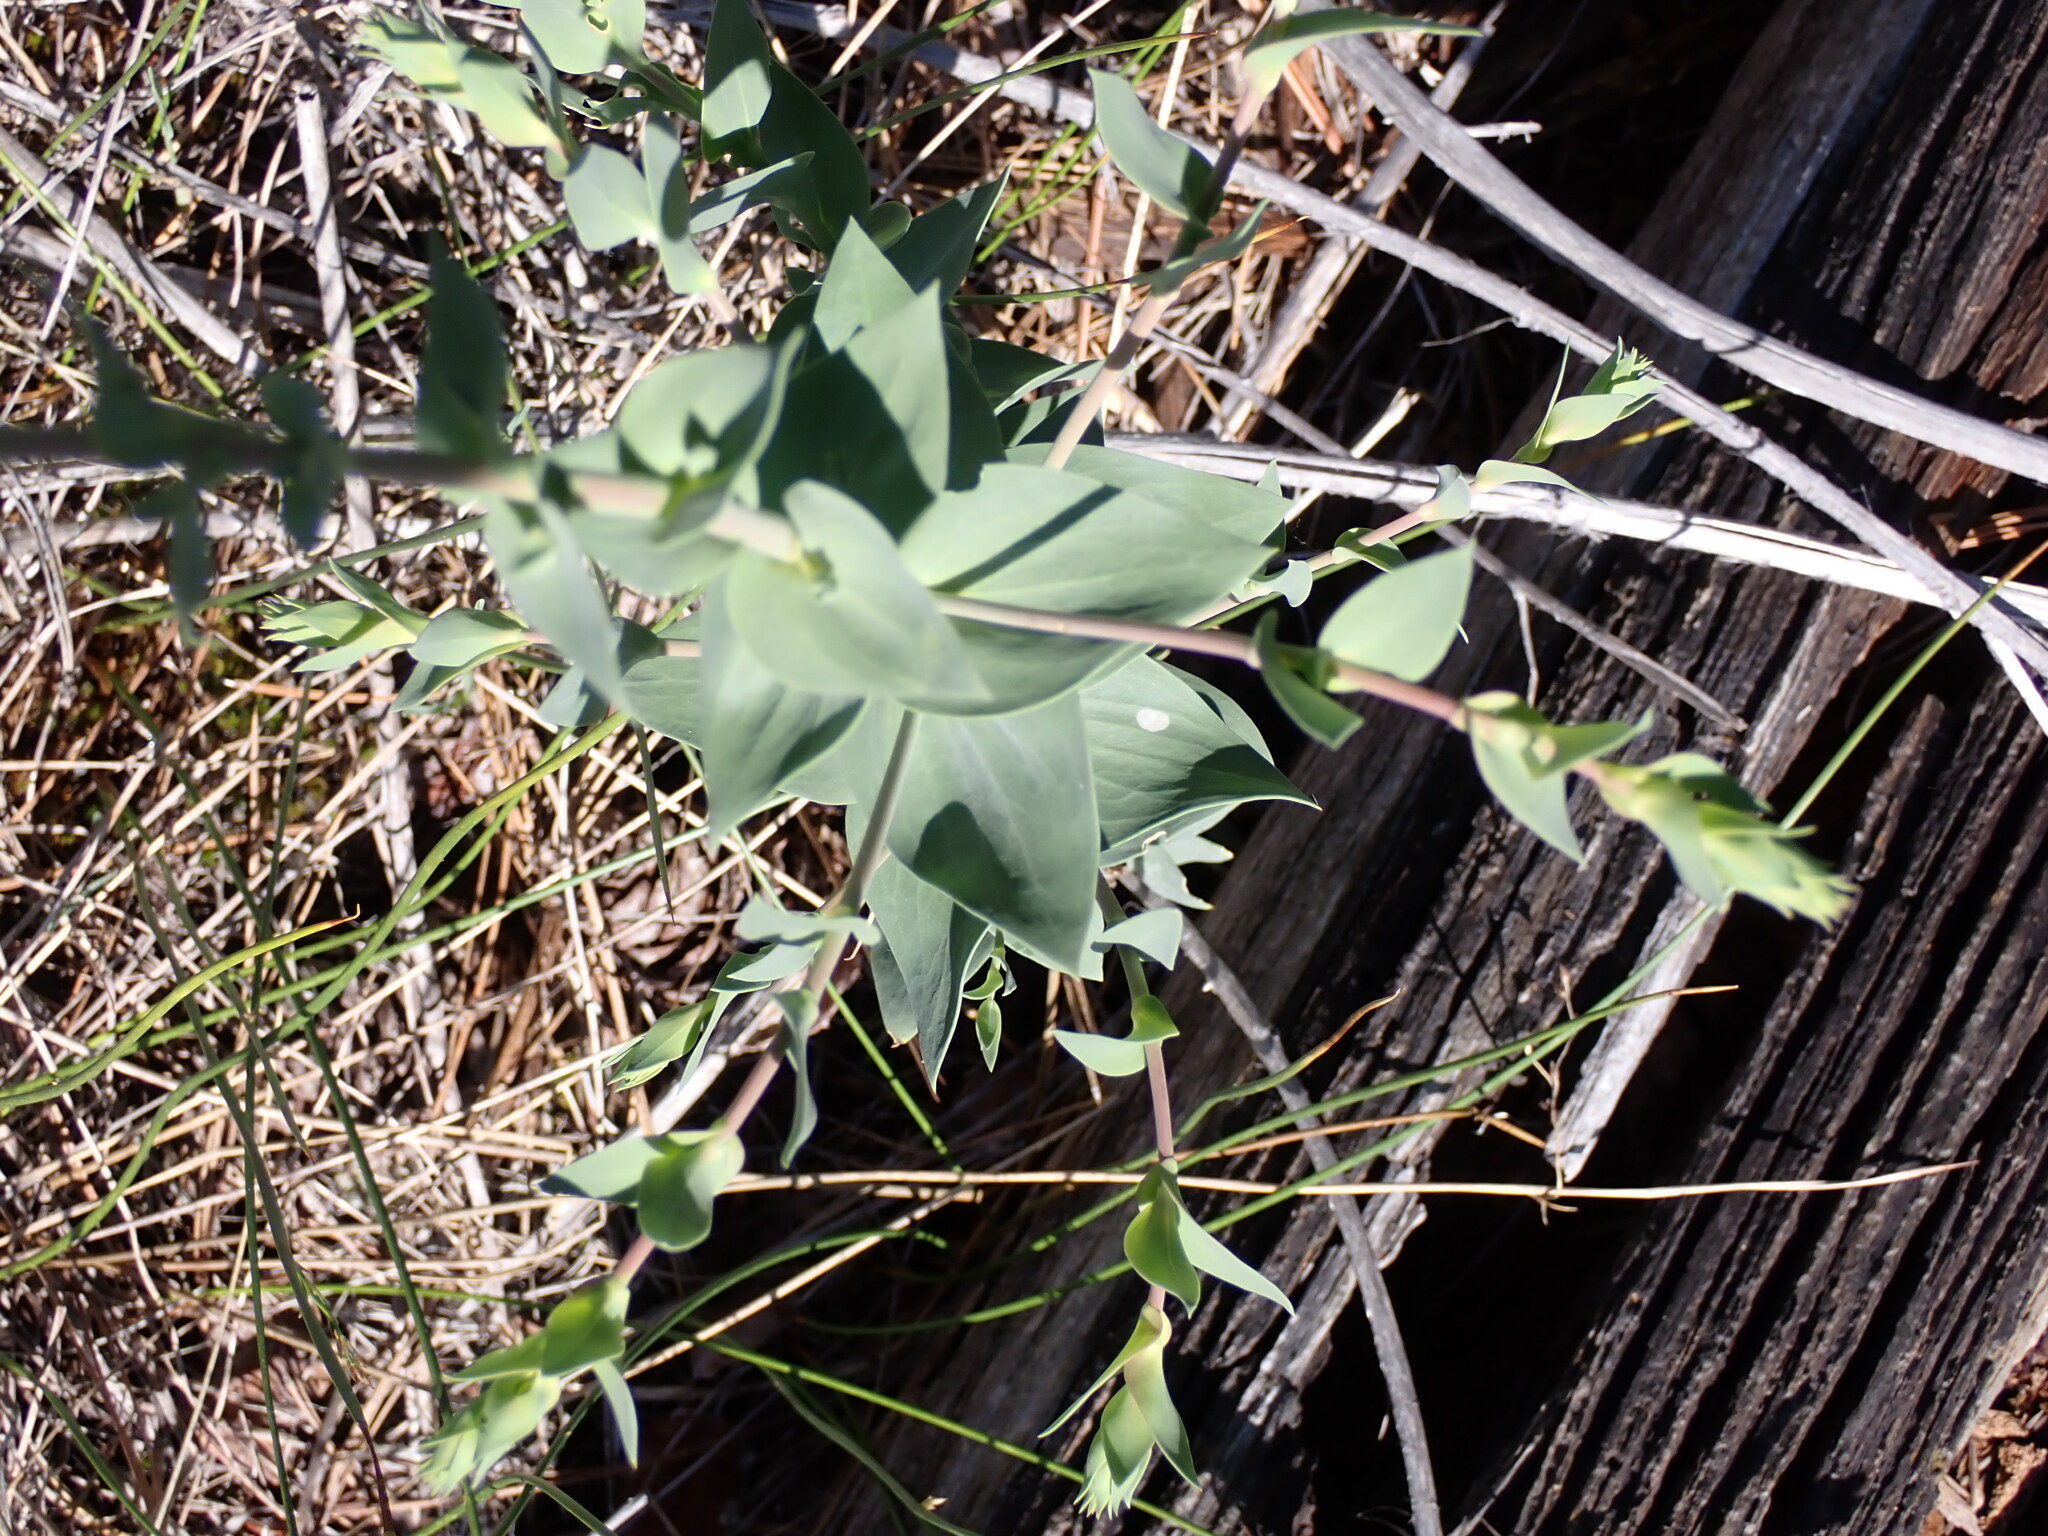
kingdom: Plantae
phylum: Tracheophyta
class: Magnoliopsida
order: Lamiales
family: Plantaginaceae
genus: Linaria
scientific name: Linaria dalmatica
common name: Dalmatian toadflax
